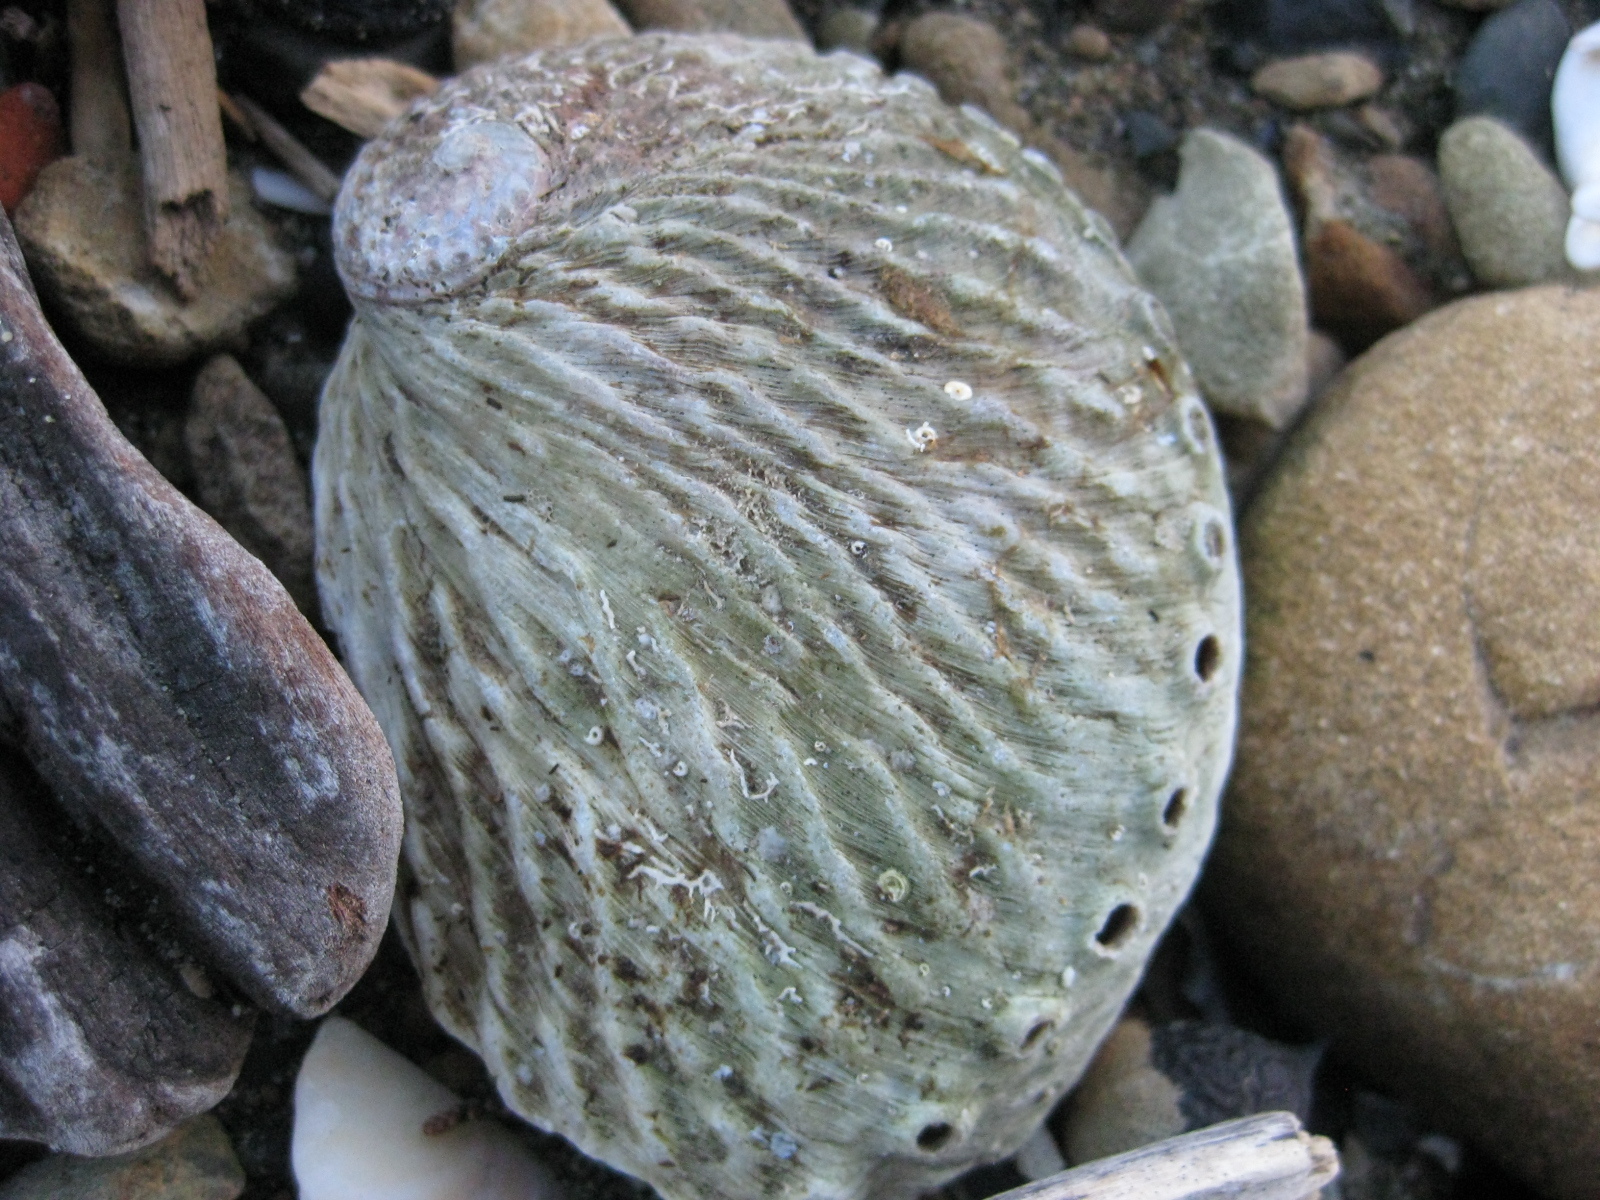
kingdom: Animalia
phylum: Mollusca
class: Gastropoda
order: Lepetellida
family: Haliotidae
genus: Haliotis
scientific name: Haliotis australis
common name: Silver abalone
